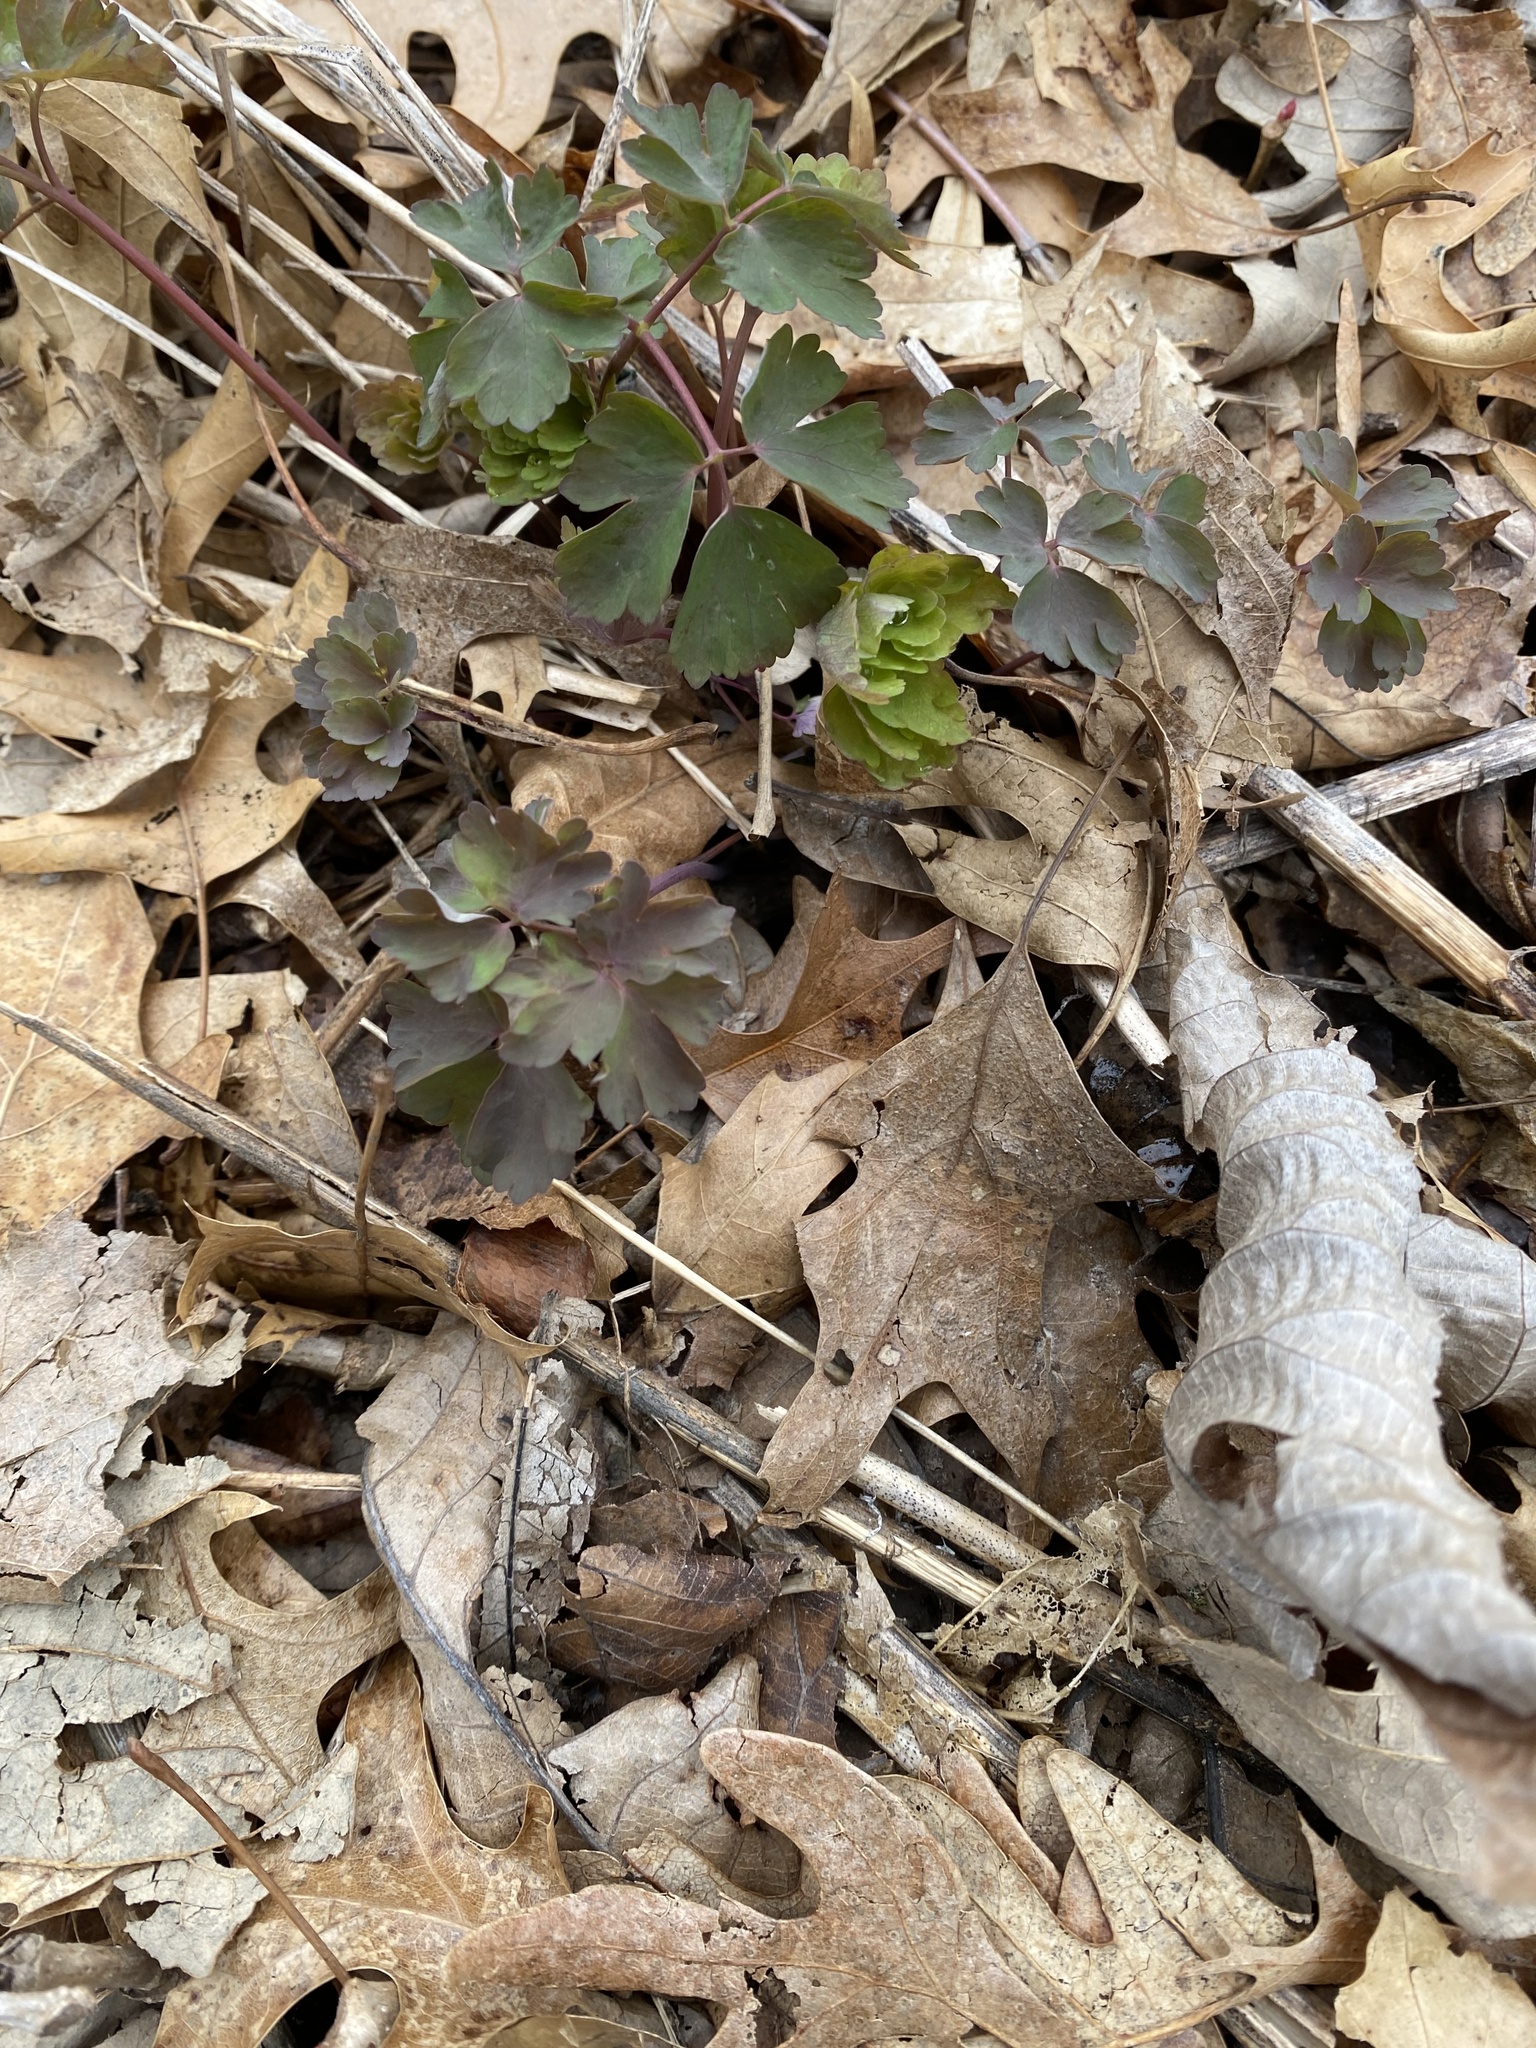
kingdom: Plantae
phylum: Tracheophyta
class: Magnoliopsida
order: Ranunculales
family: Ranunculaceae
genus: Aquilegia
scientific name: Aquilegia canadensis
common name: American columbine
